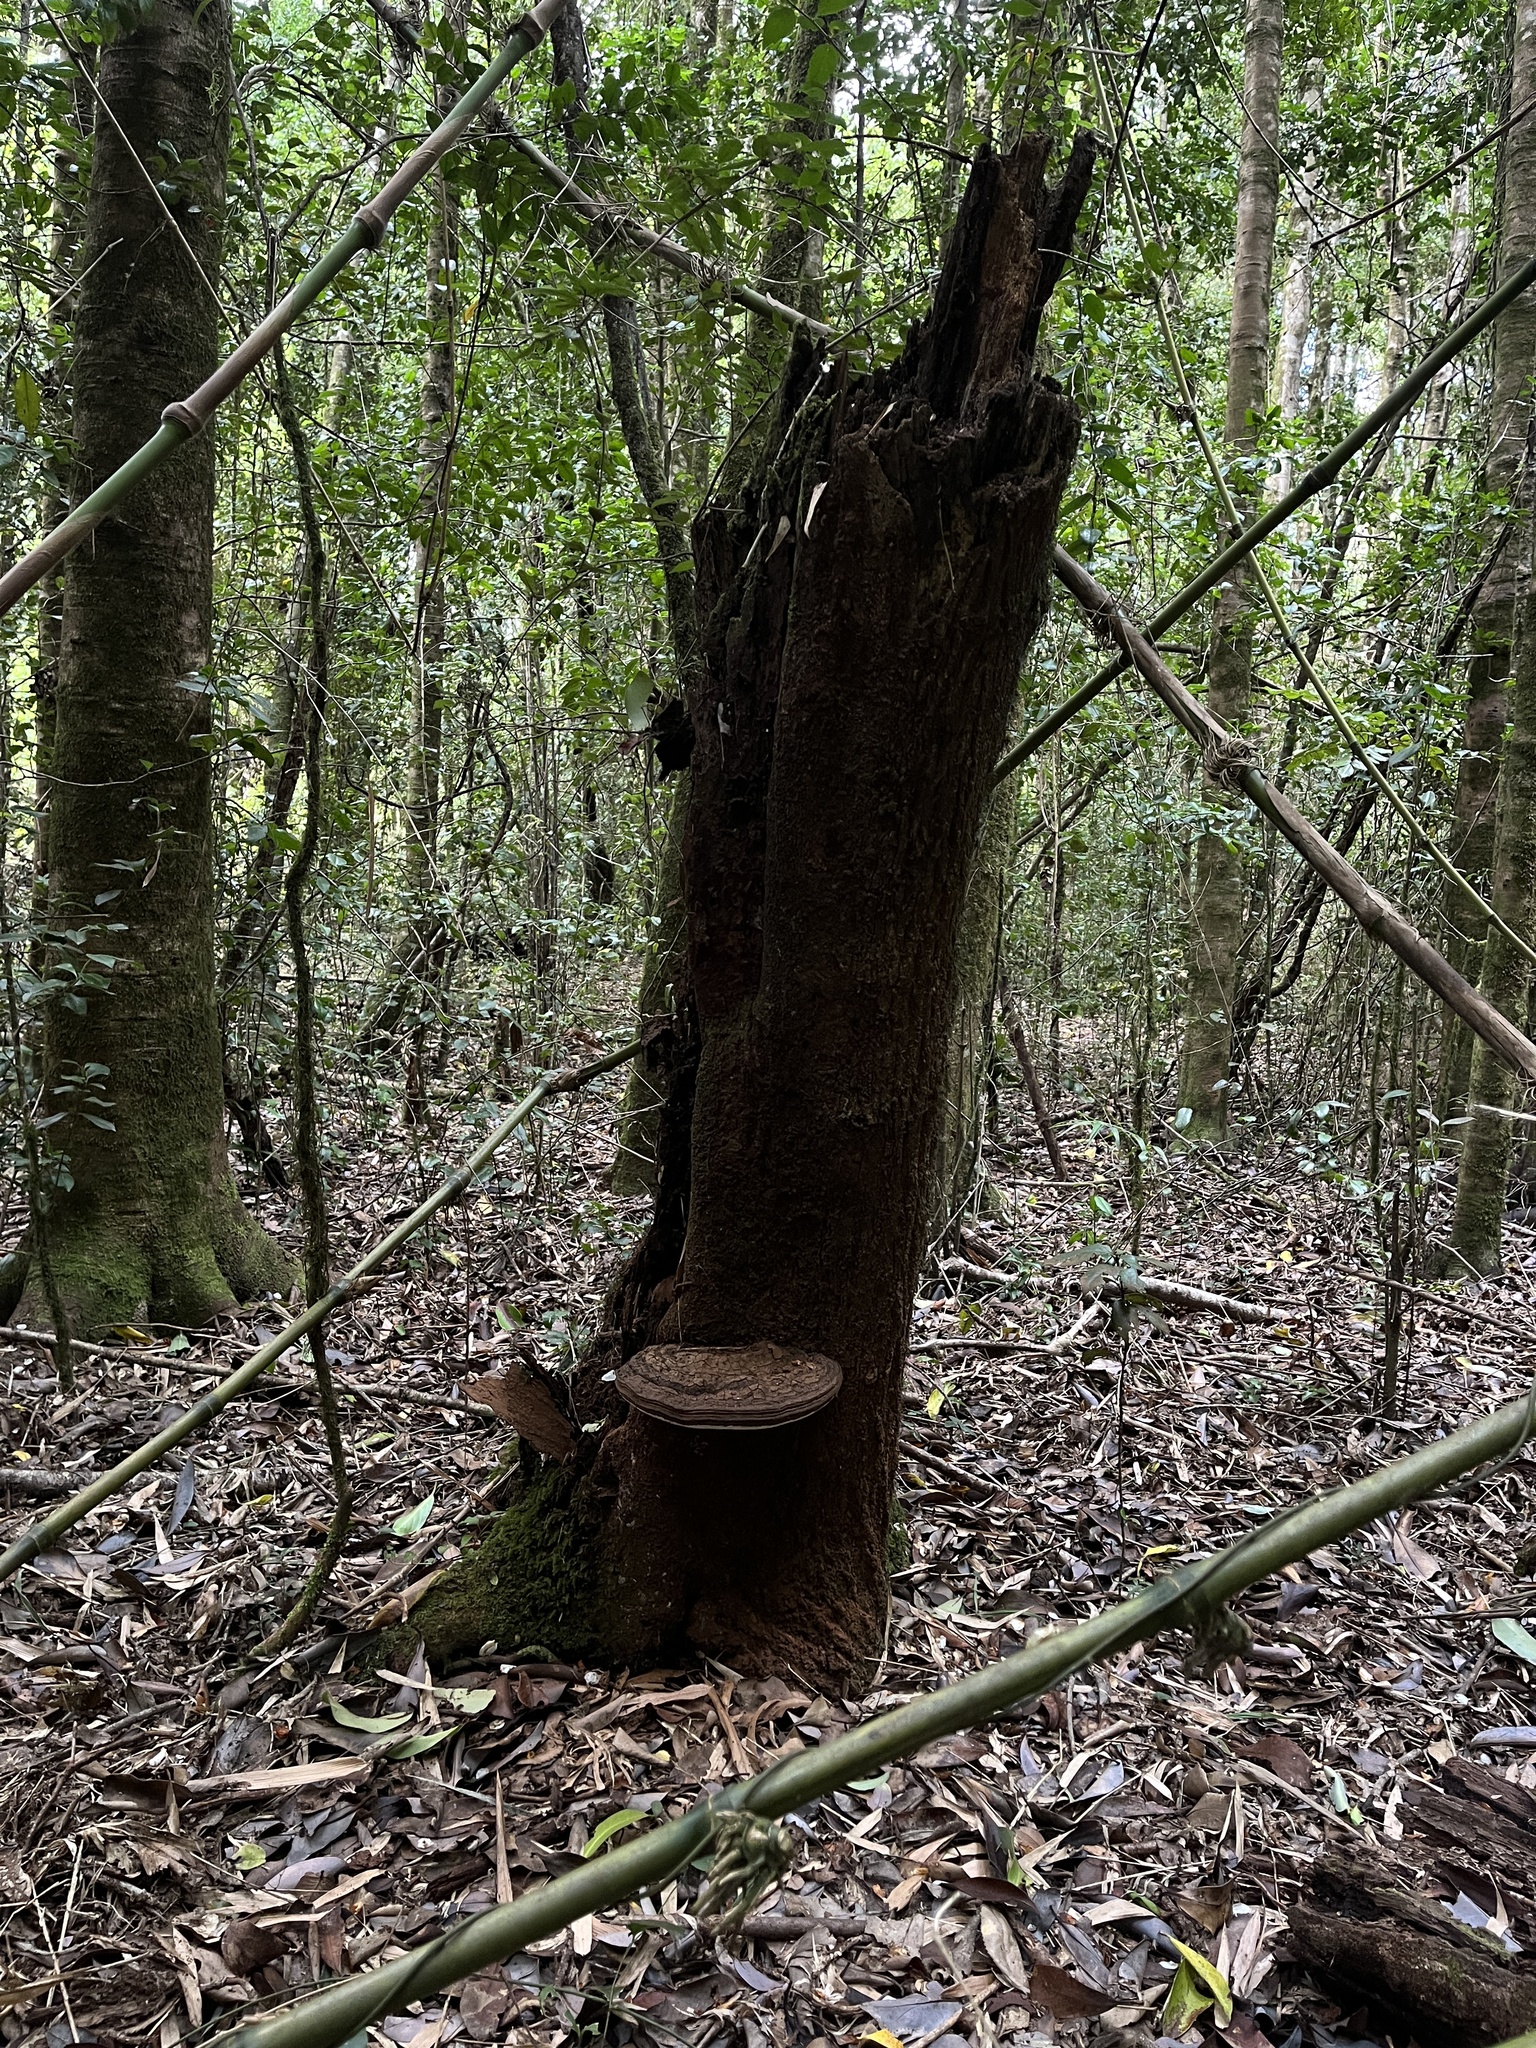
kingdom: Fungi
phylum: Basidiomycota
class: Agaricomycetes
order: Polyporales
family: Polyporaceae
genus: Ganoderma
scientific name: Ganoderma australe
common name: Southern bracket
